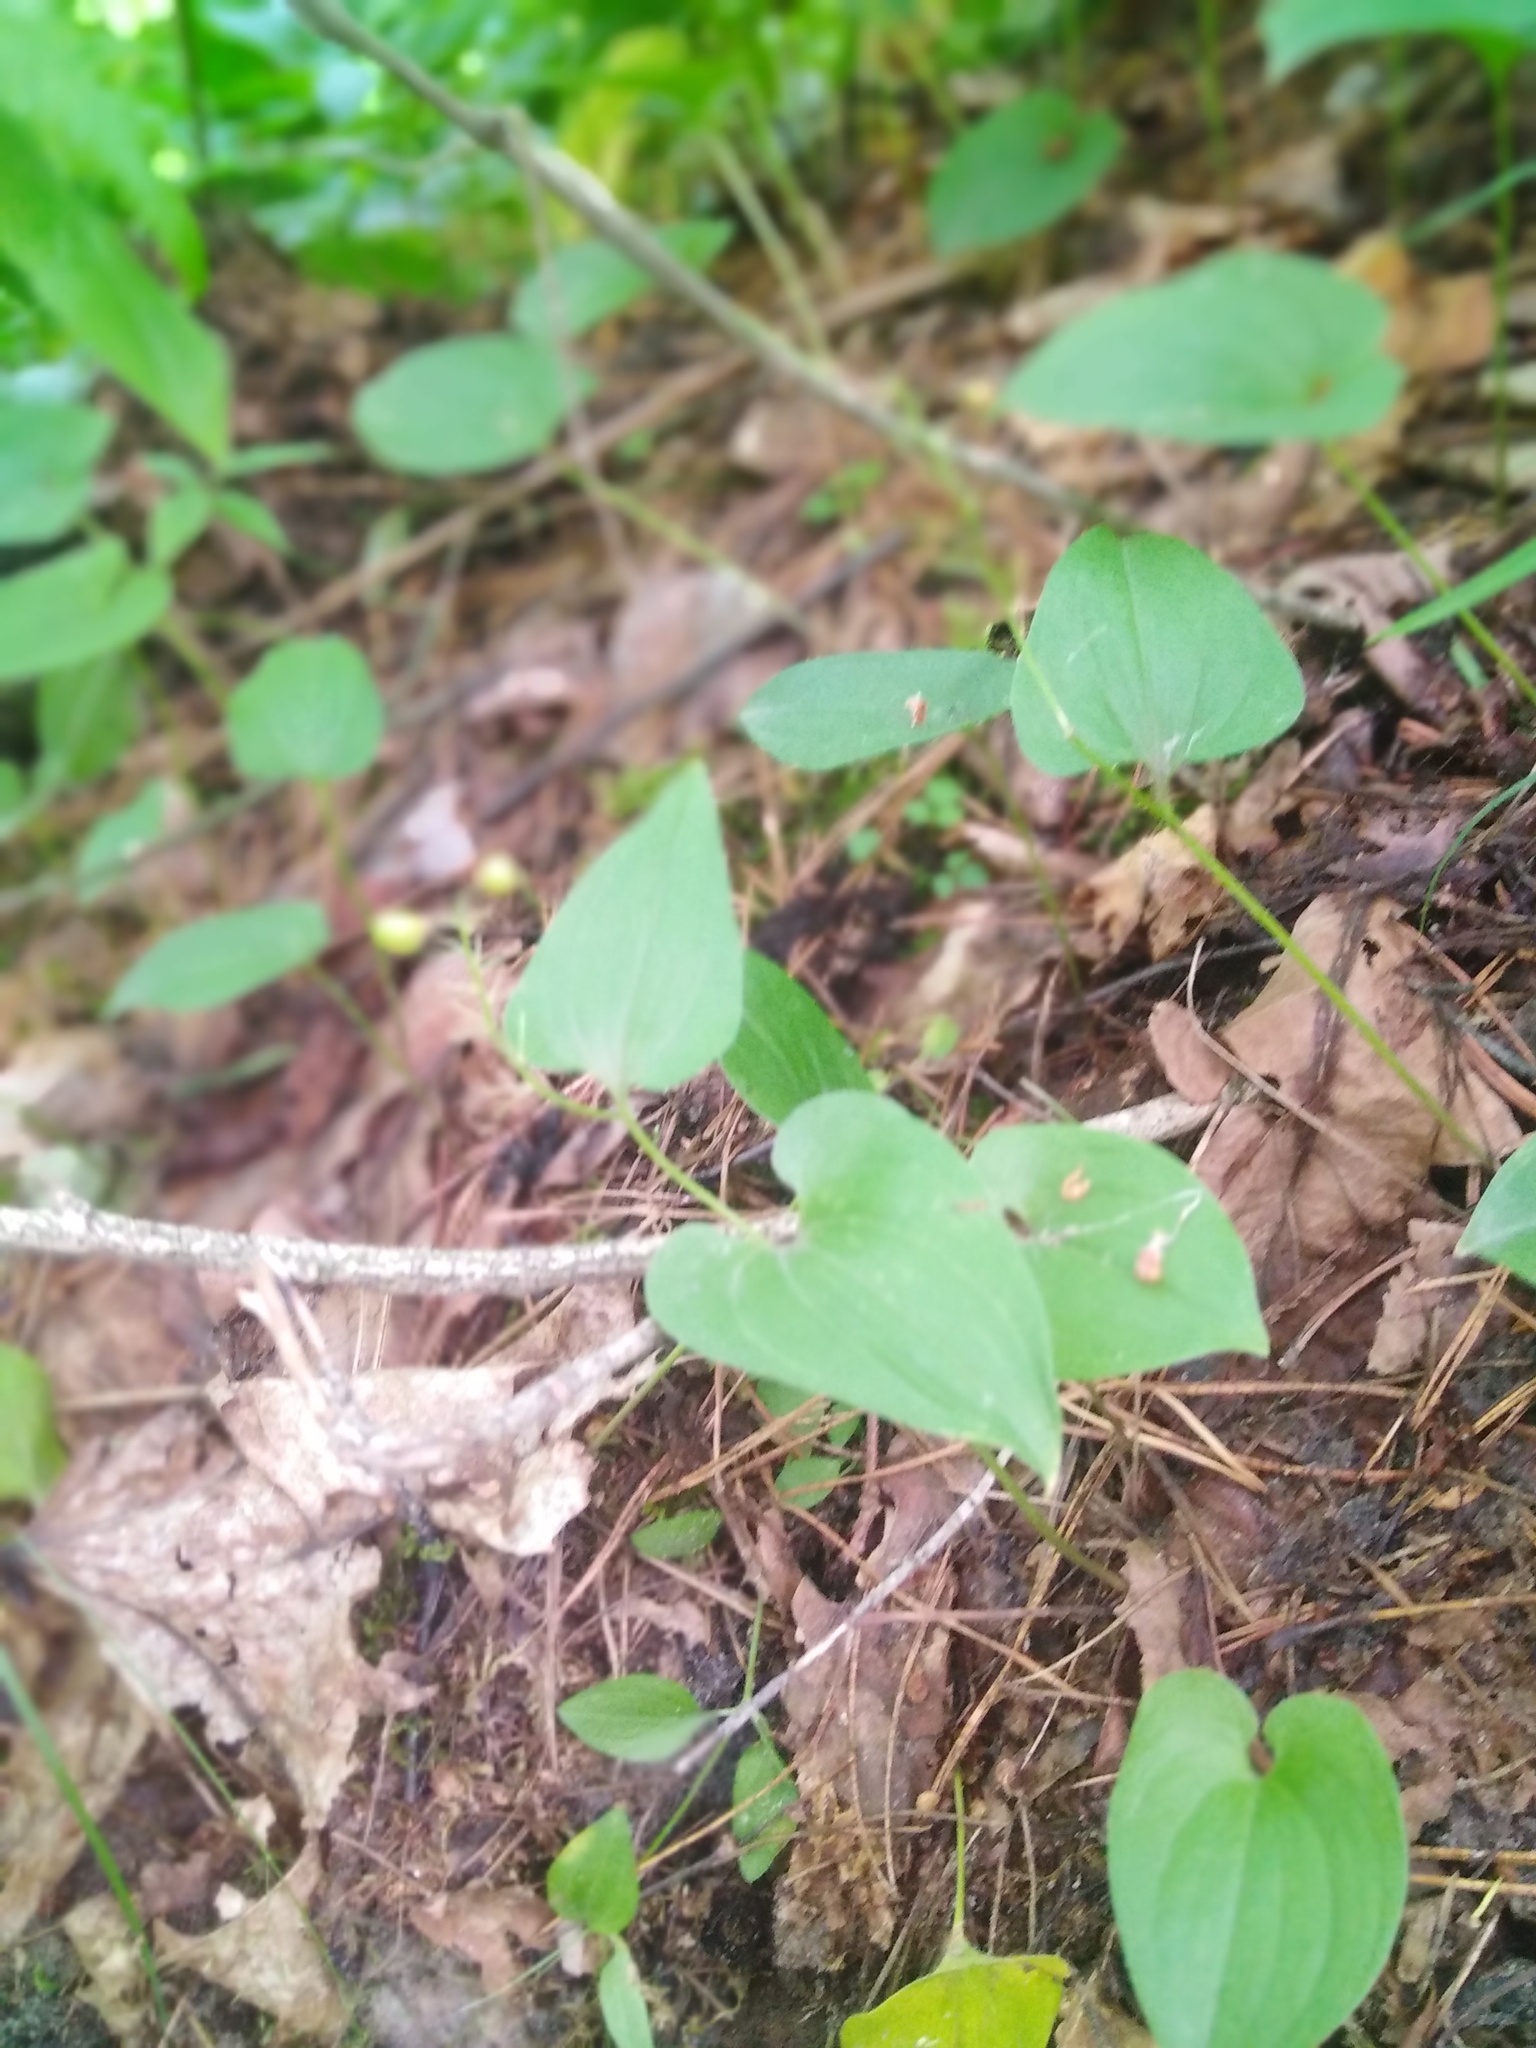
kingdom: Plantae
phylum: Tracheophyta
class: Liliopsida
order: Asparagales
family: Asparagaceae
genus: Maianthemum
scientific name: Maianthemum bifolium
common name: May lily
